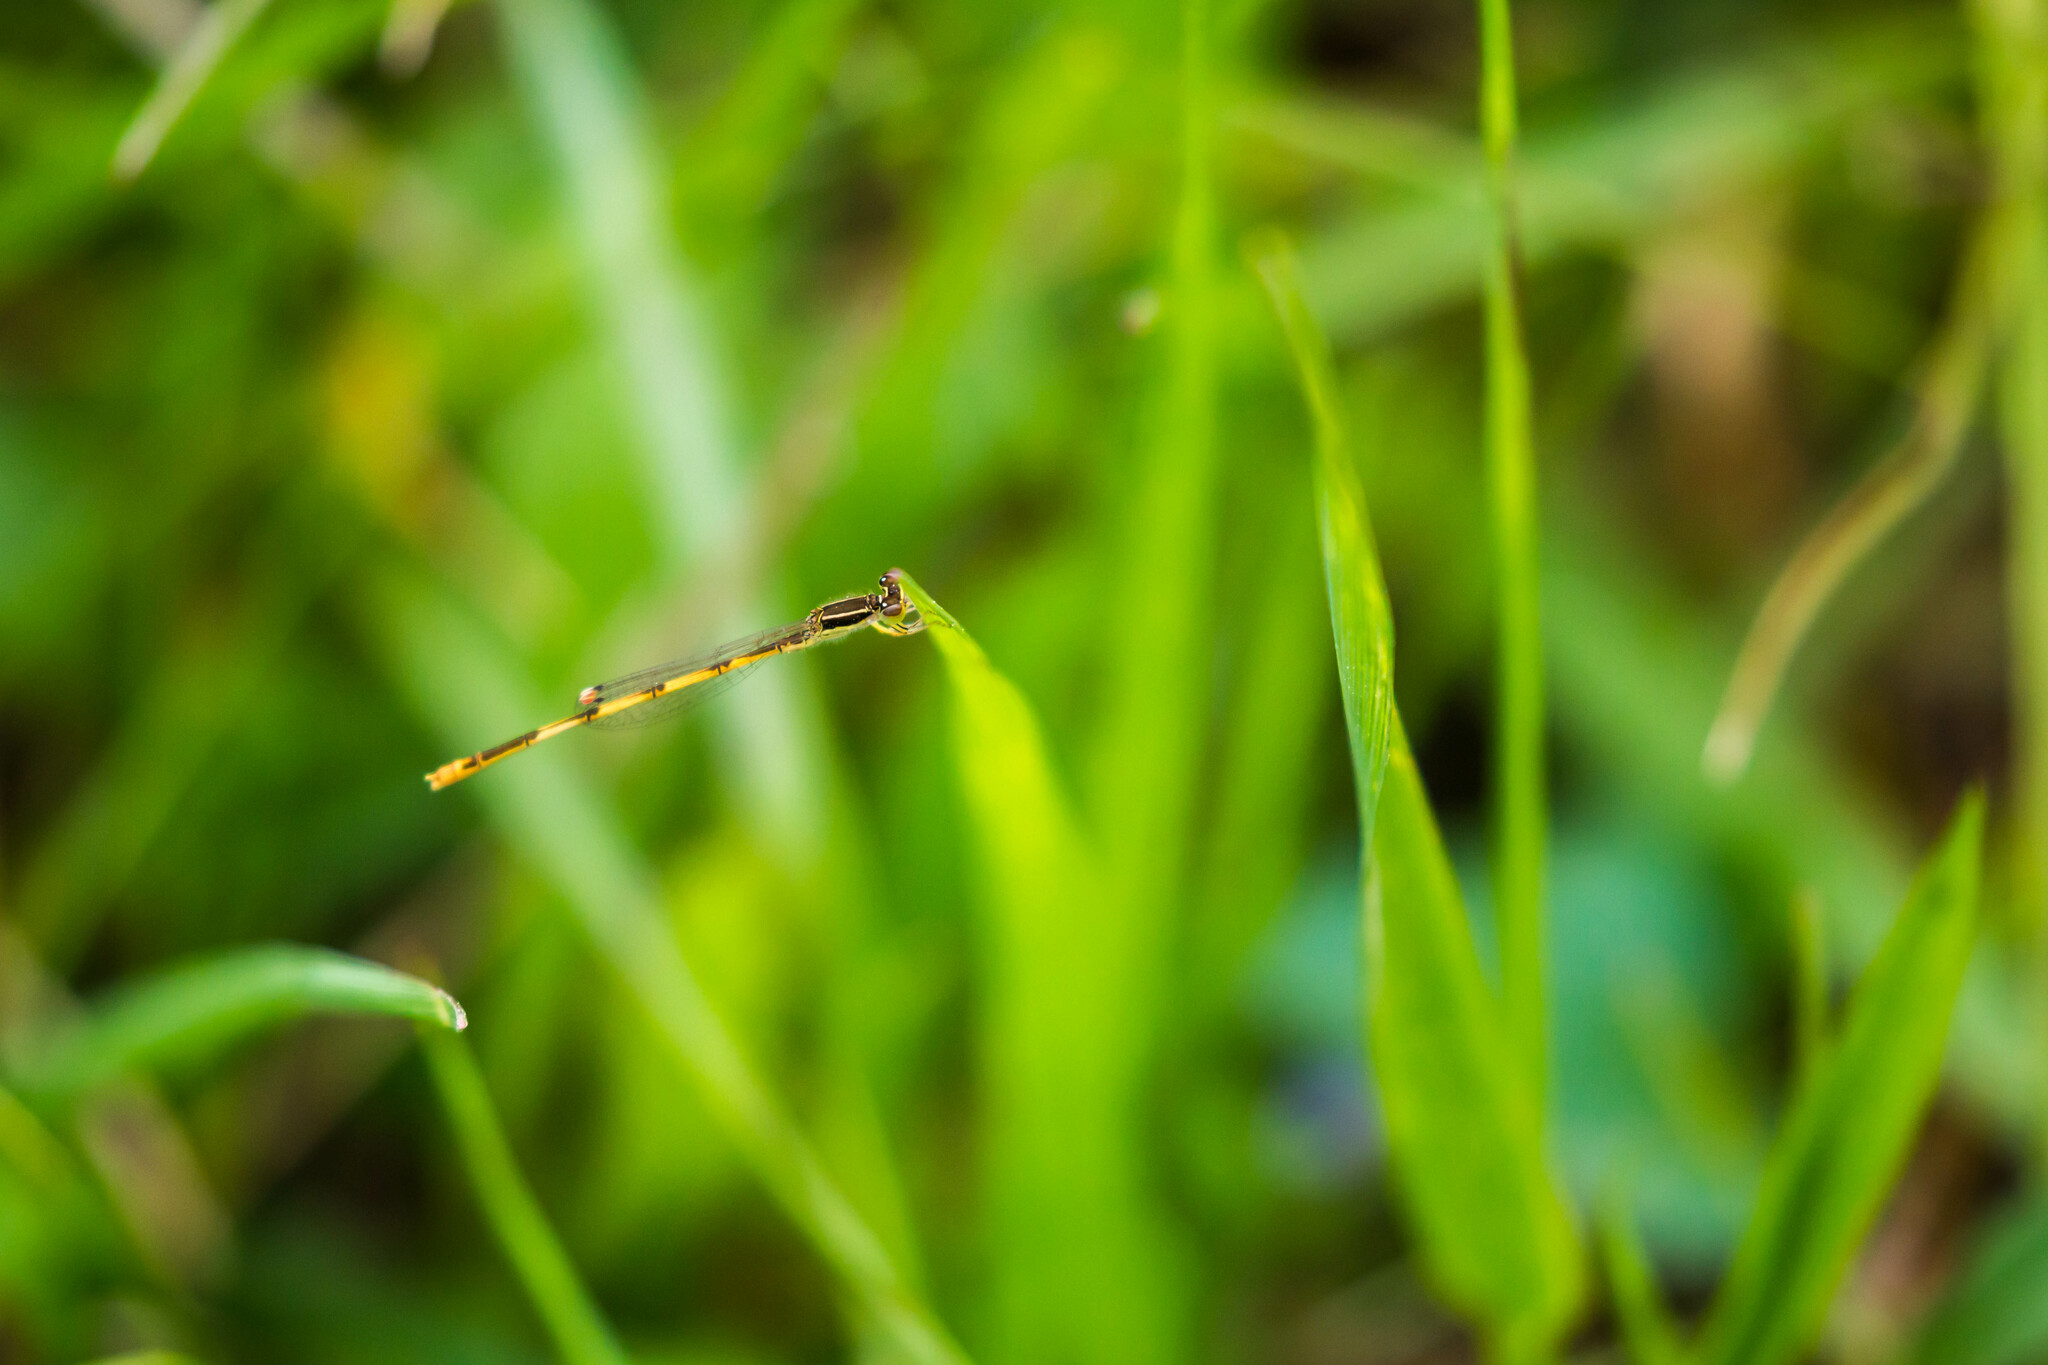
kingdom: Animalia
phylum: Arthropoda
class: Insecta
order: Odonata
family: Coenagrionidae
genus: Ischnura
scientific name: Ischnura hastata
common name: Citrine forktail
